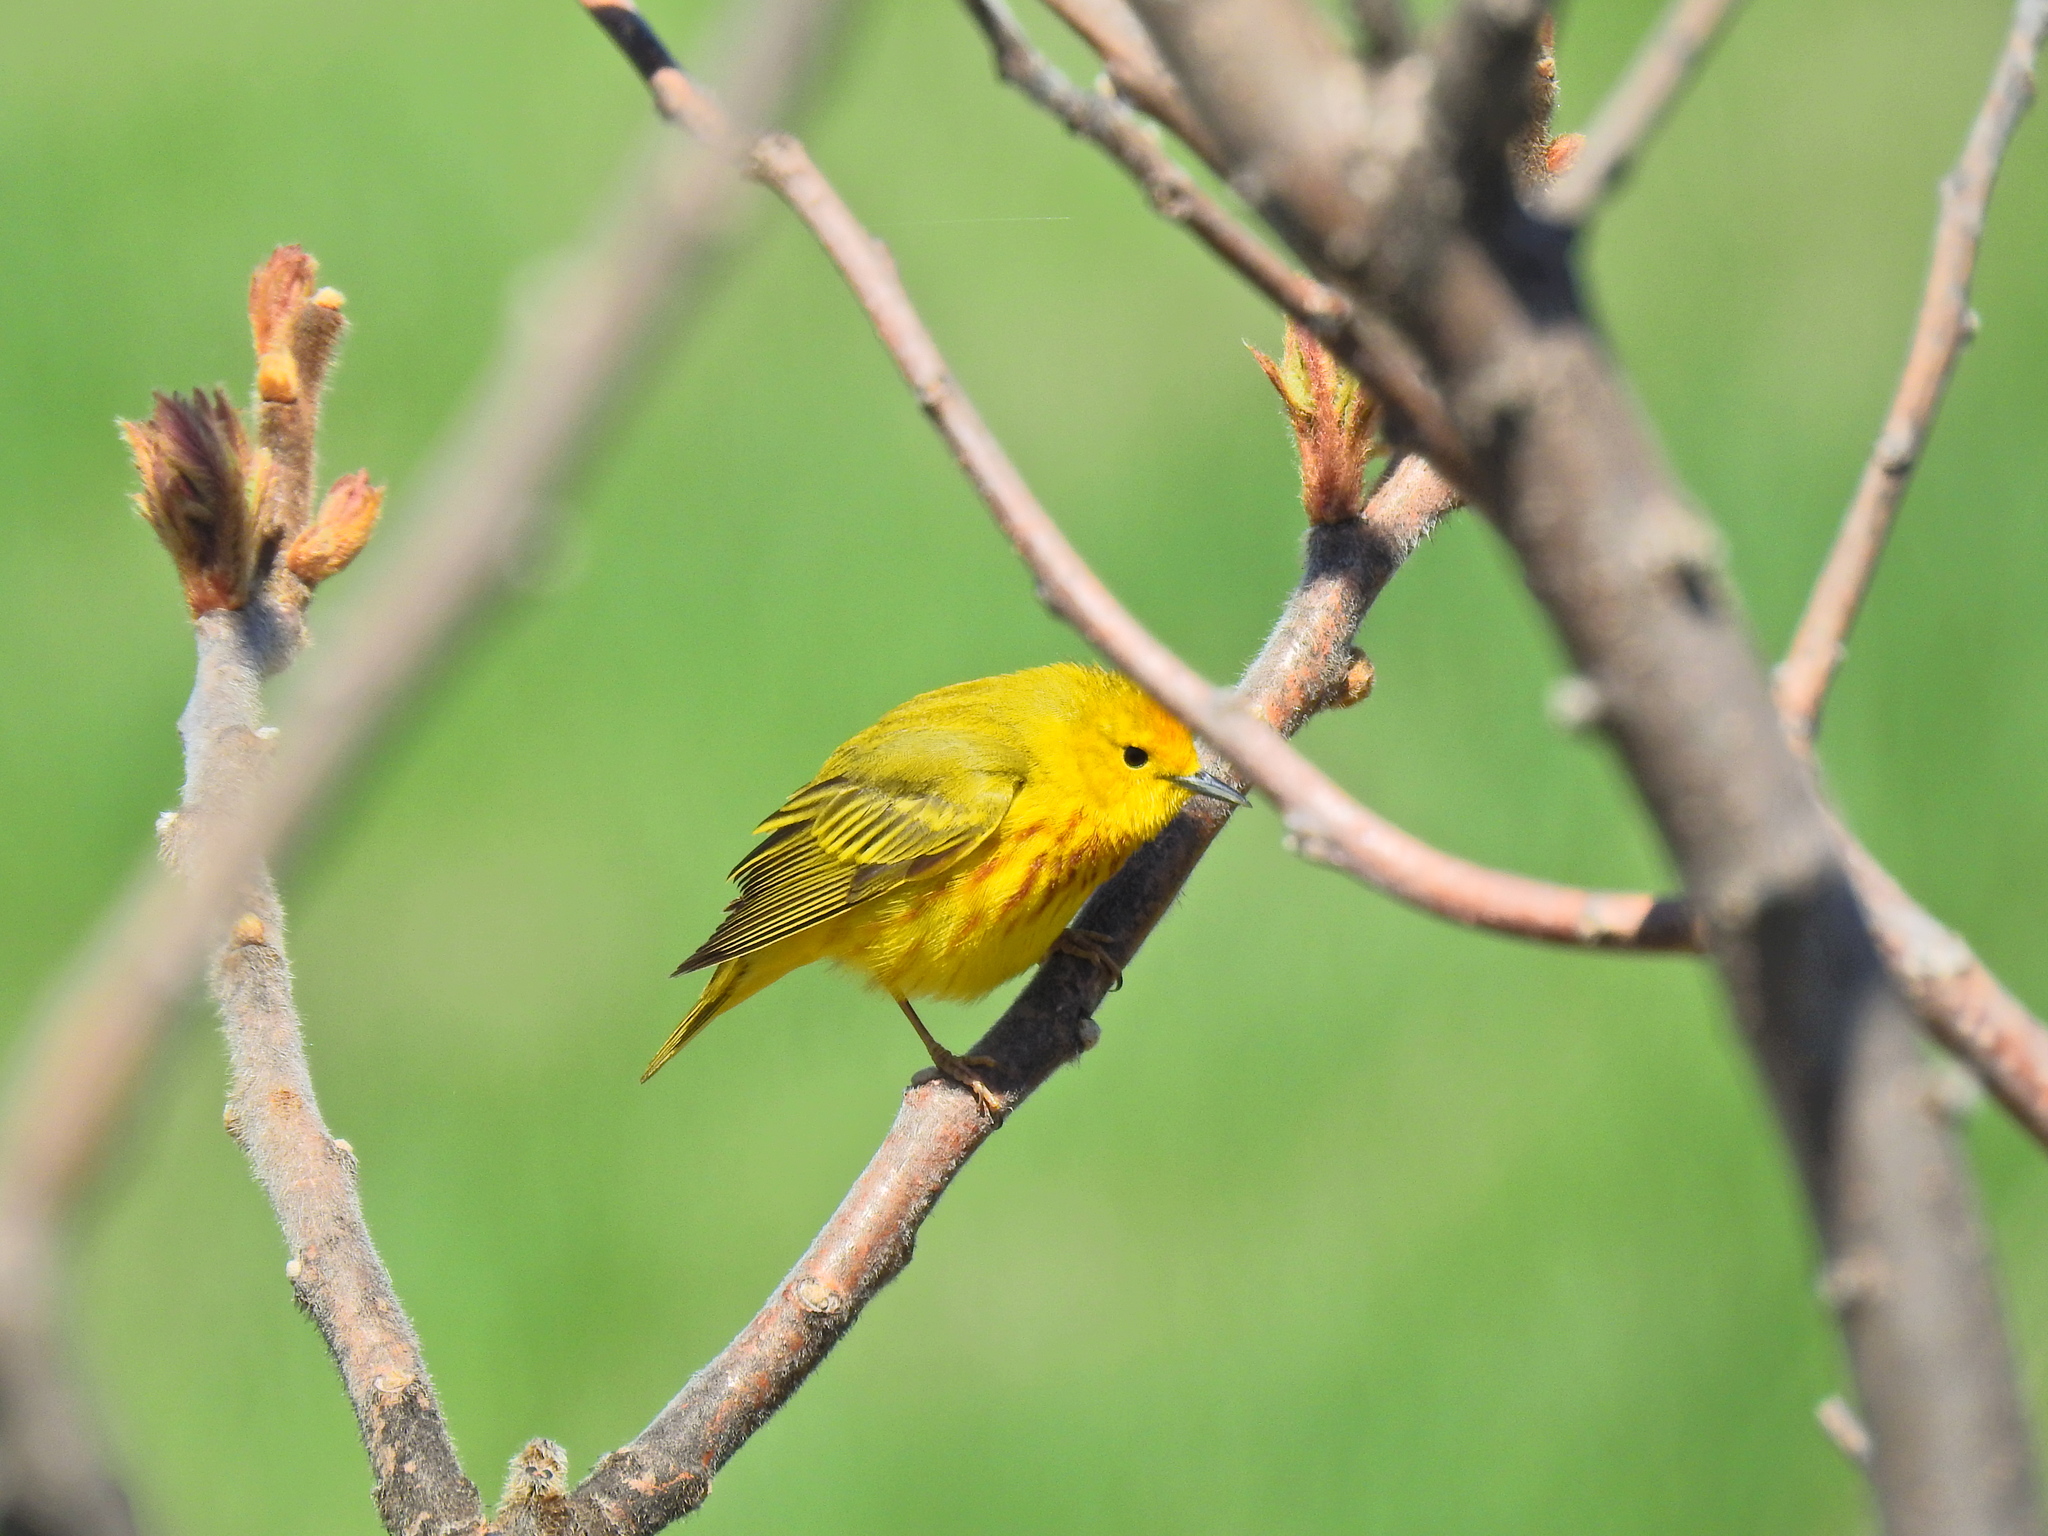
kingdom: Animalia
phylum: Chordata
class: Aves
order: Passeriformes
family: Parulidae
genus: Setophaga
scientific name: Setophaga petechia
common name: Yellow warbler
